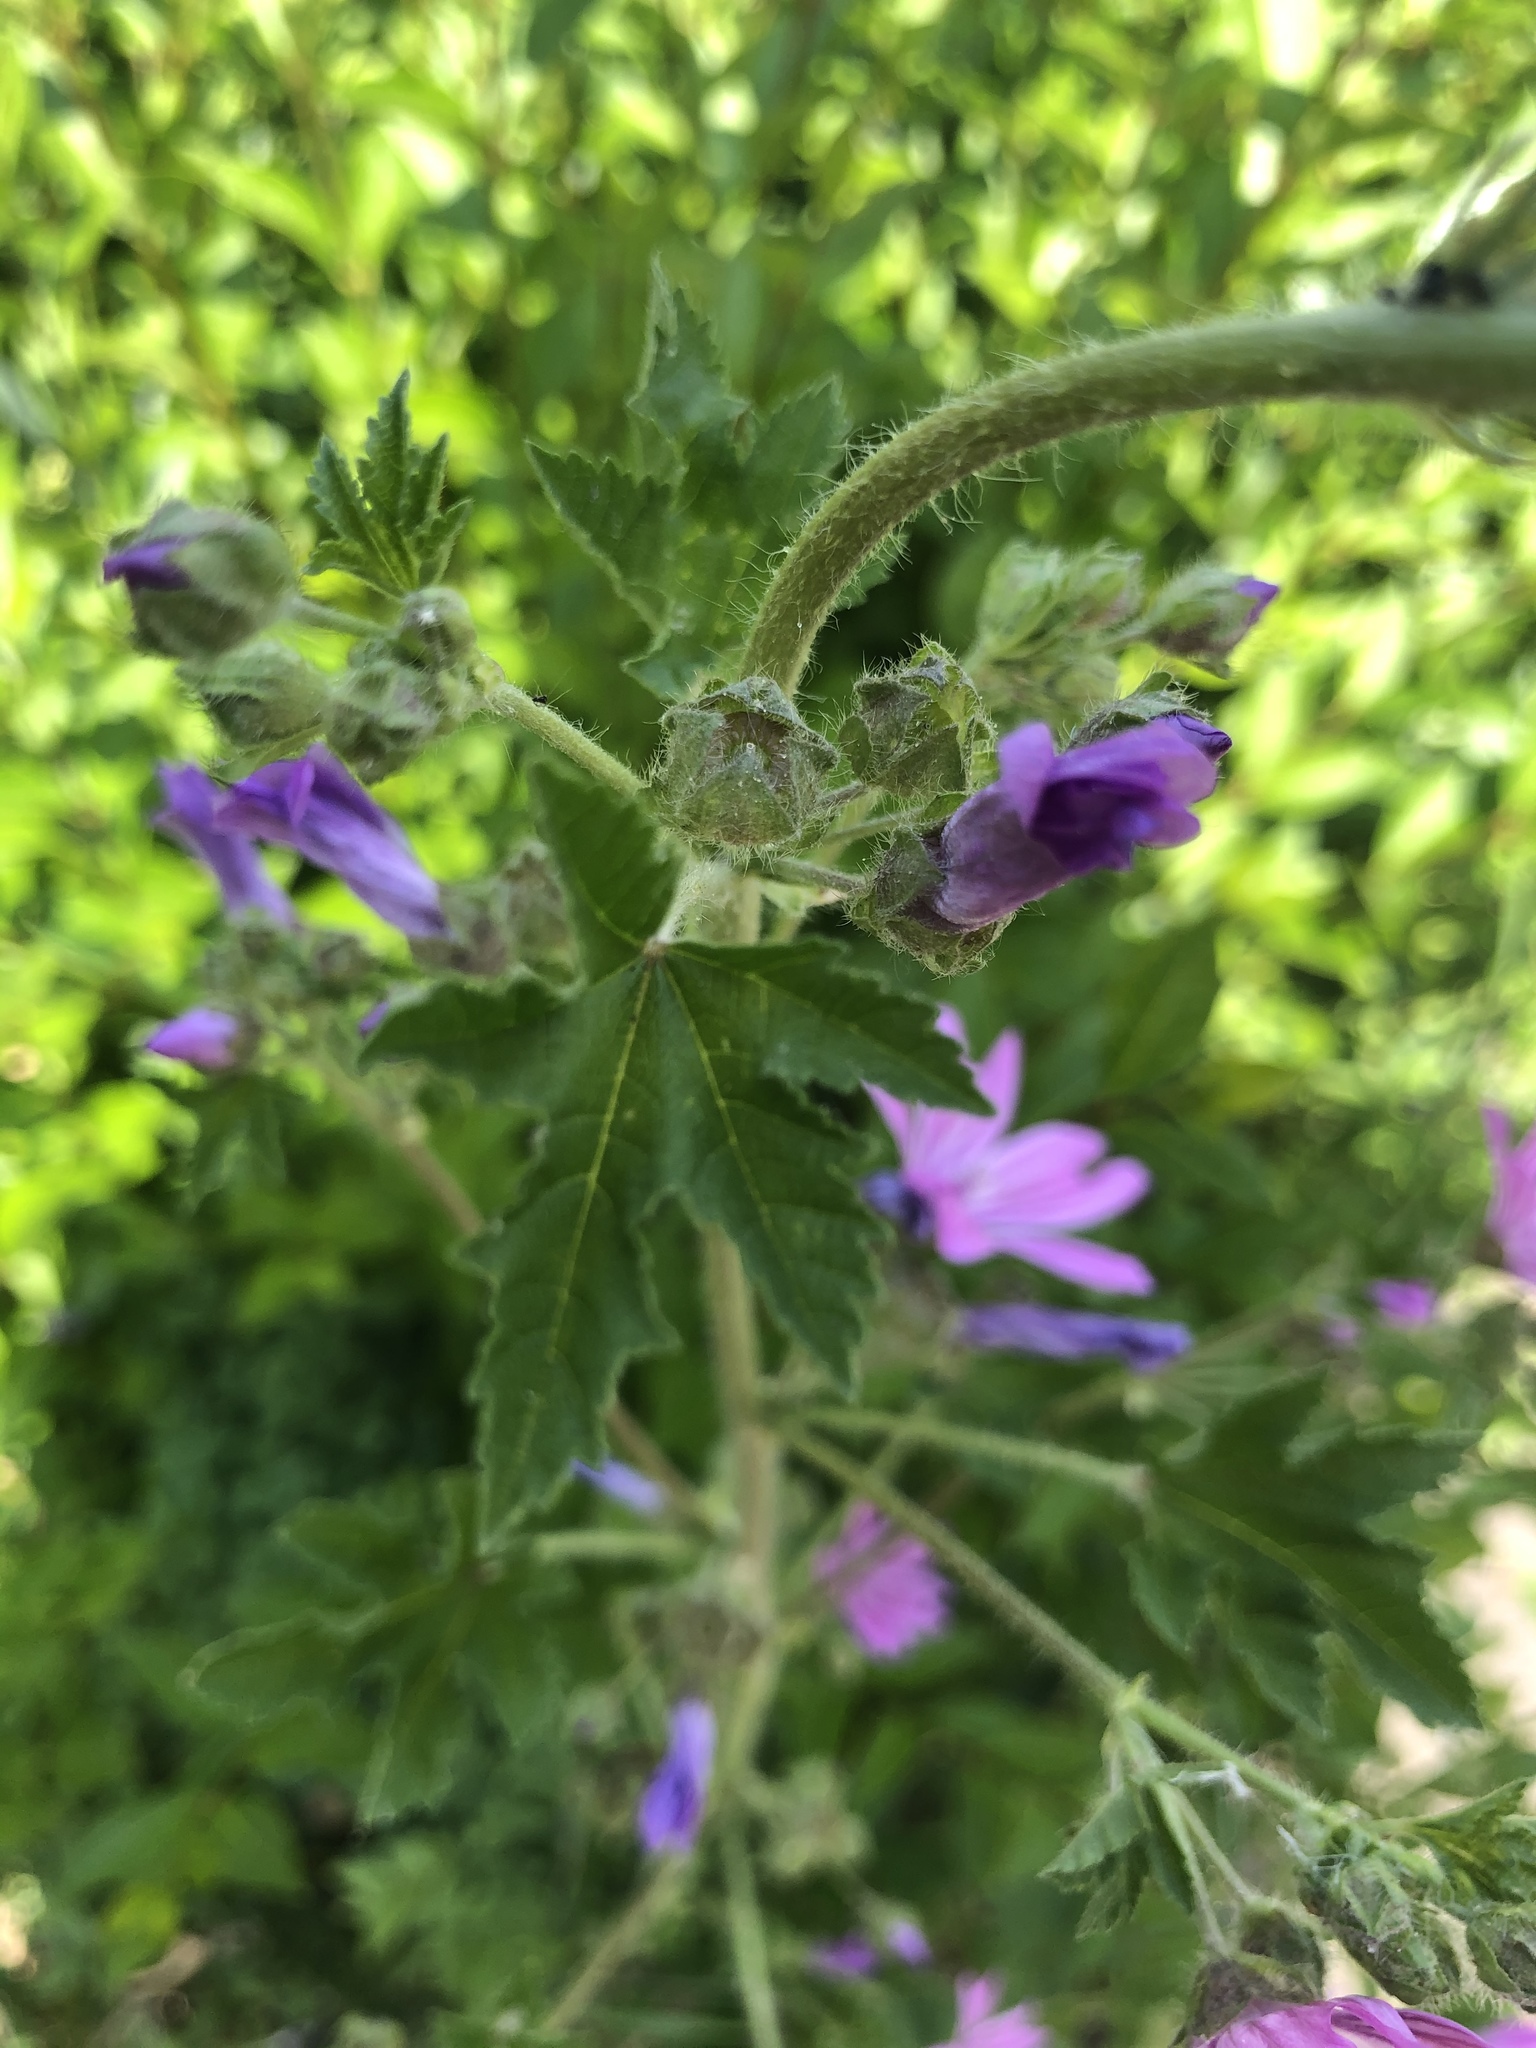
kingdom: Plantae
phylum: Tracheophyta
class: Magnoliopsida
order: Malvales
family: Malvaceae
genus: Malva
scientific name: Malva sylvestris
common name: Common mallow
